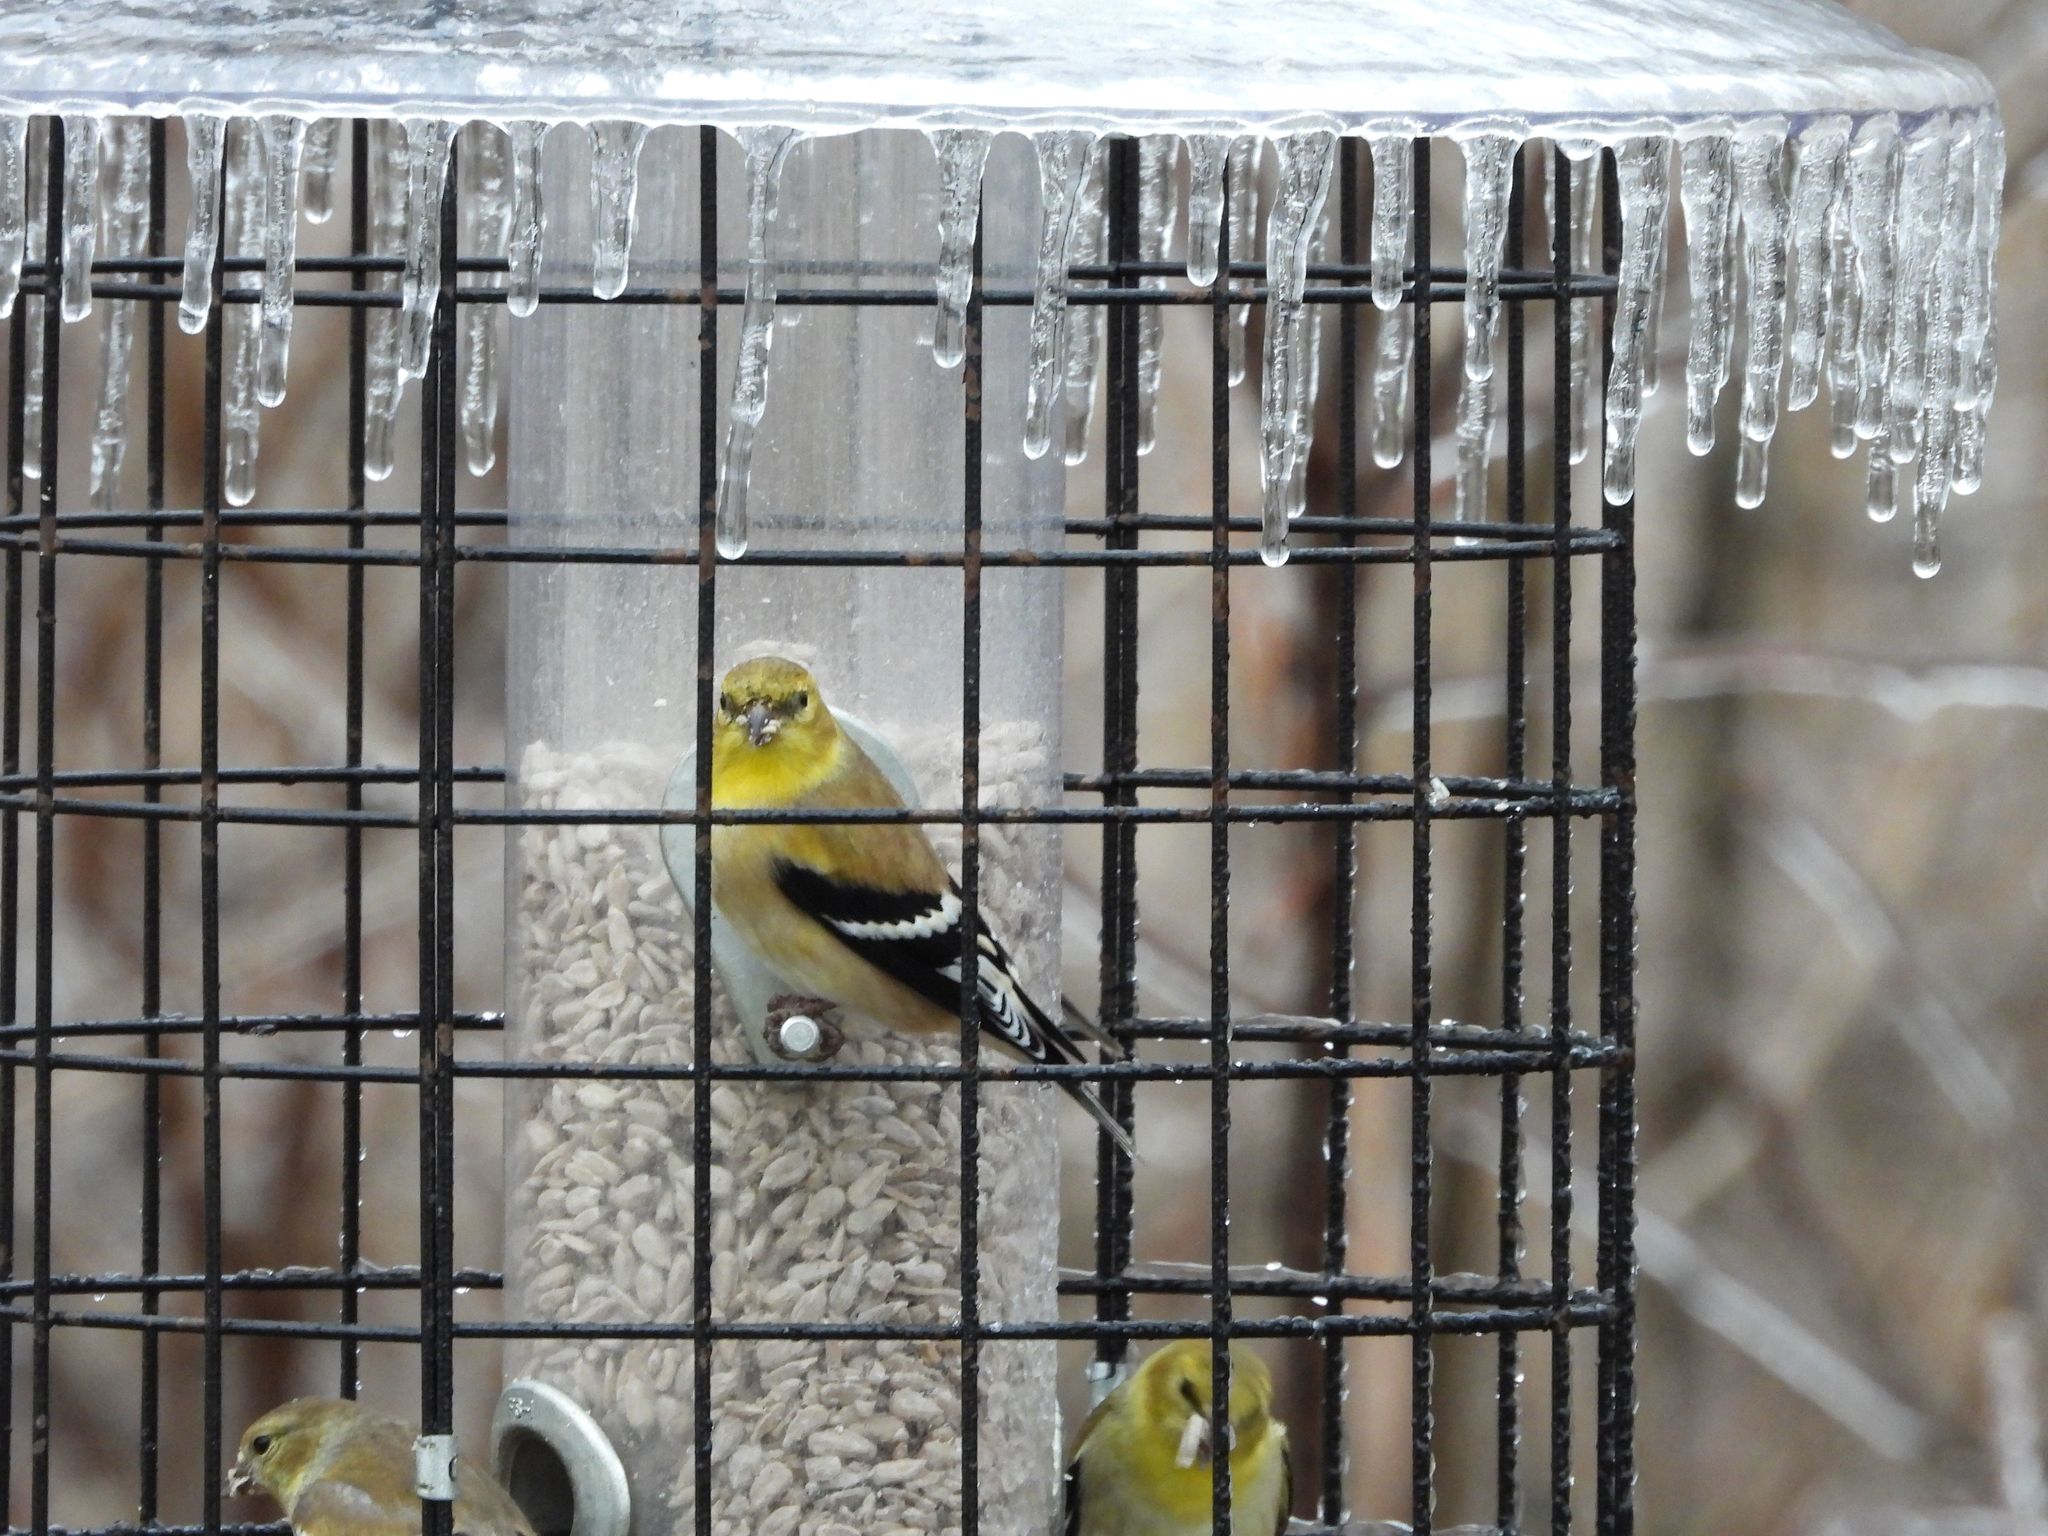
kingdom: Animalia
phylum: Chordata
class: Aves
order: Passeriformes
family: Fringillidae
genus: Spinus
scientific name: Spinus tristis
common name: American goldfinch
